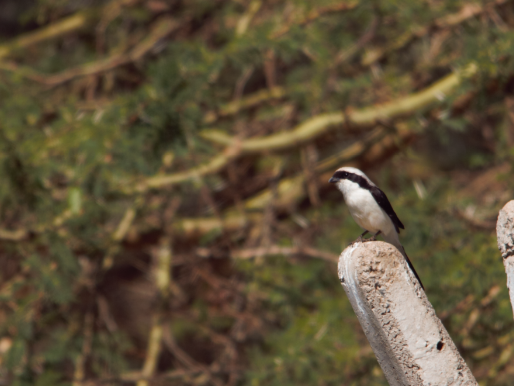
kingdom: Animalia
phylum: Chordata
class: Aves
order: Passeriformes
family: Laniidae
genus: Lanius
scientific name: Lanius excubitoroides
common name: Grey-backed fiscal
